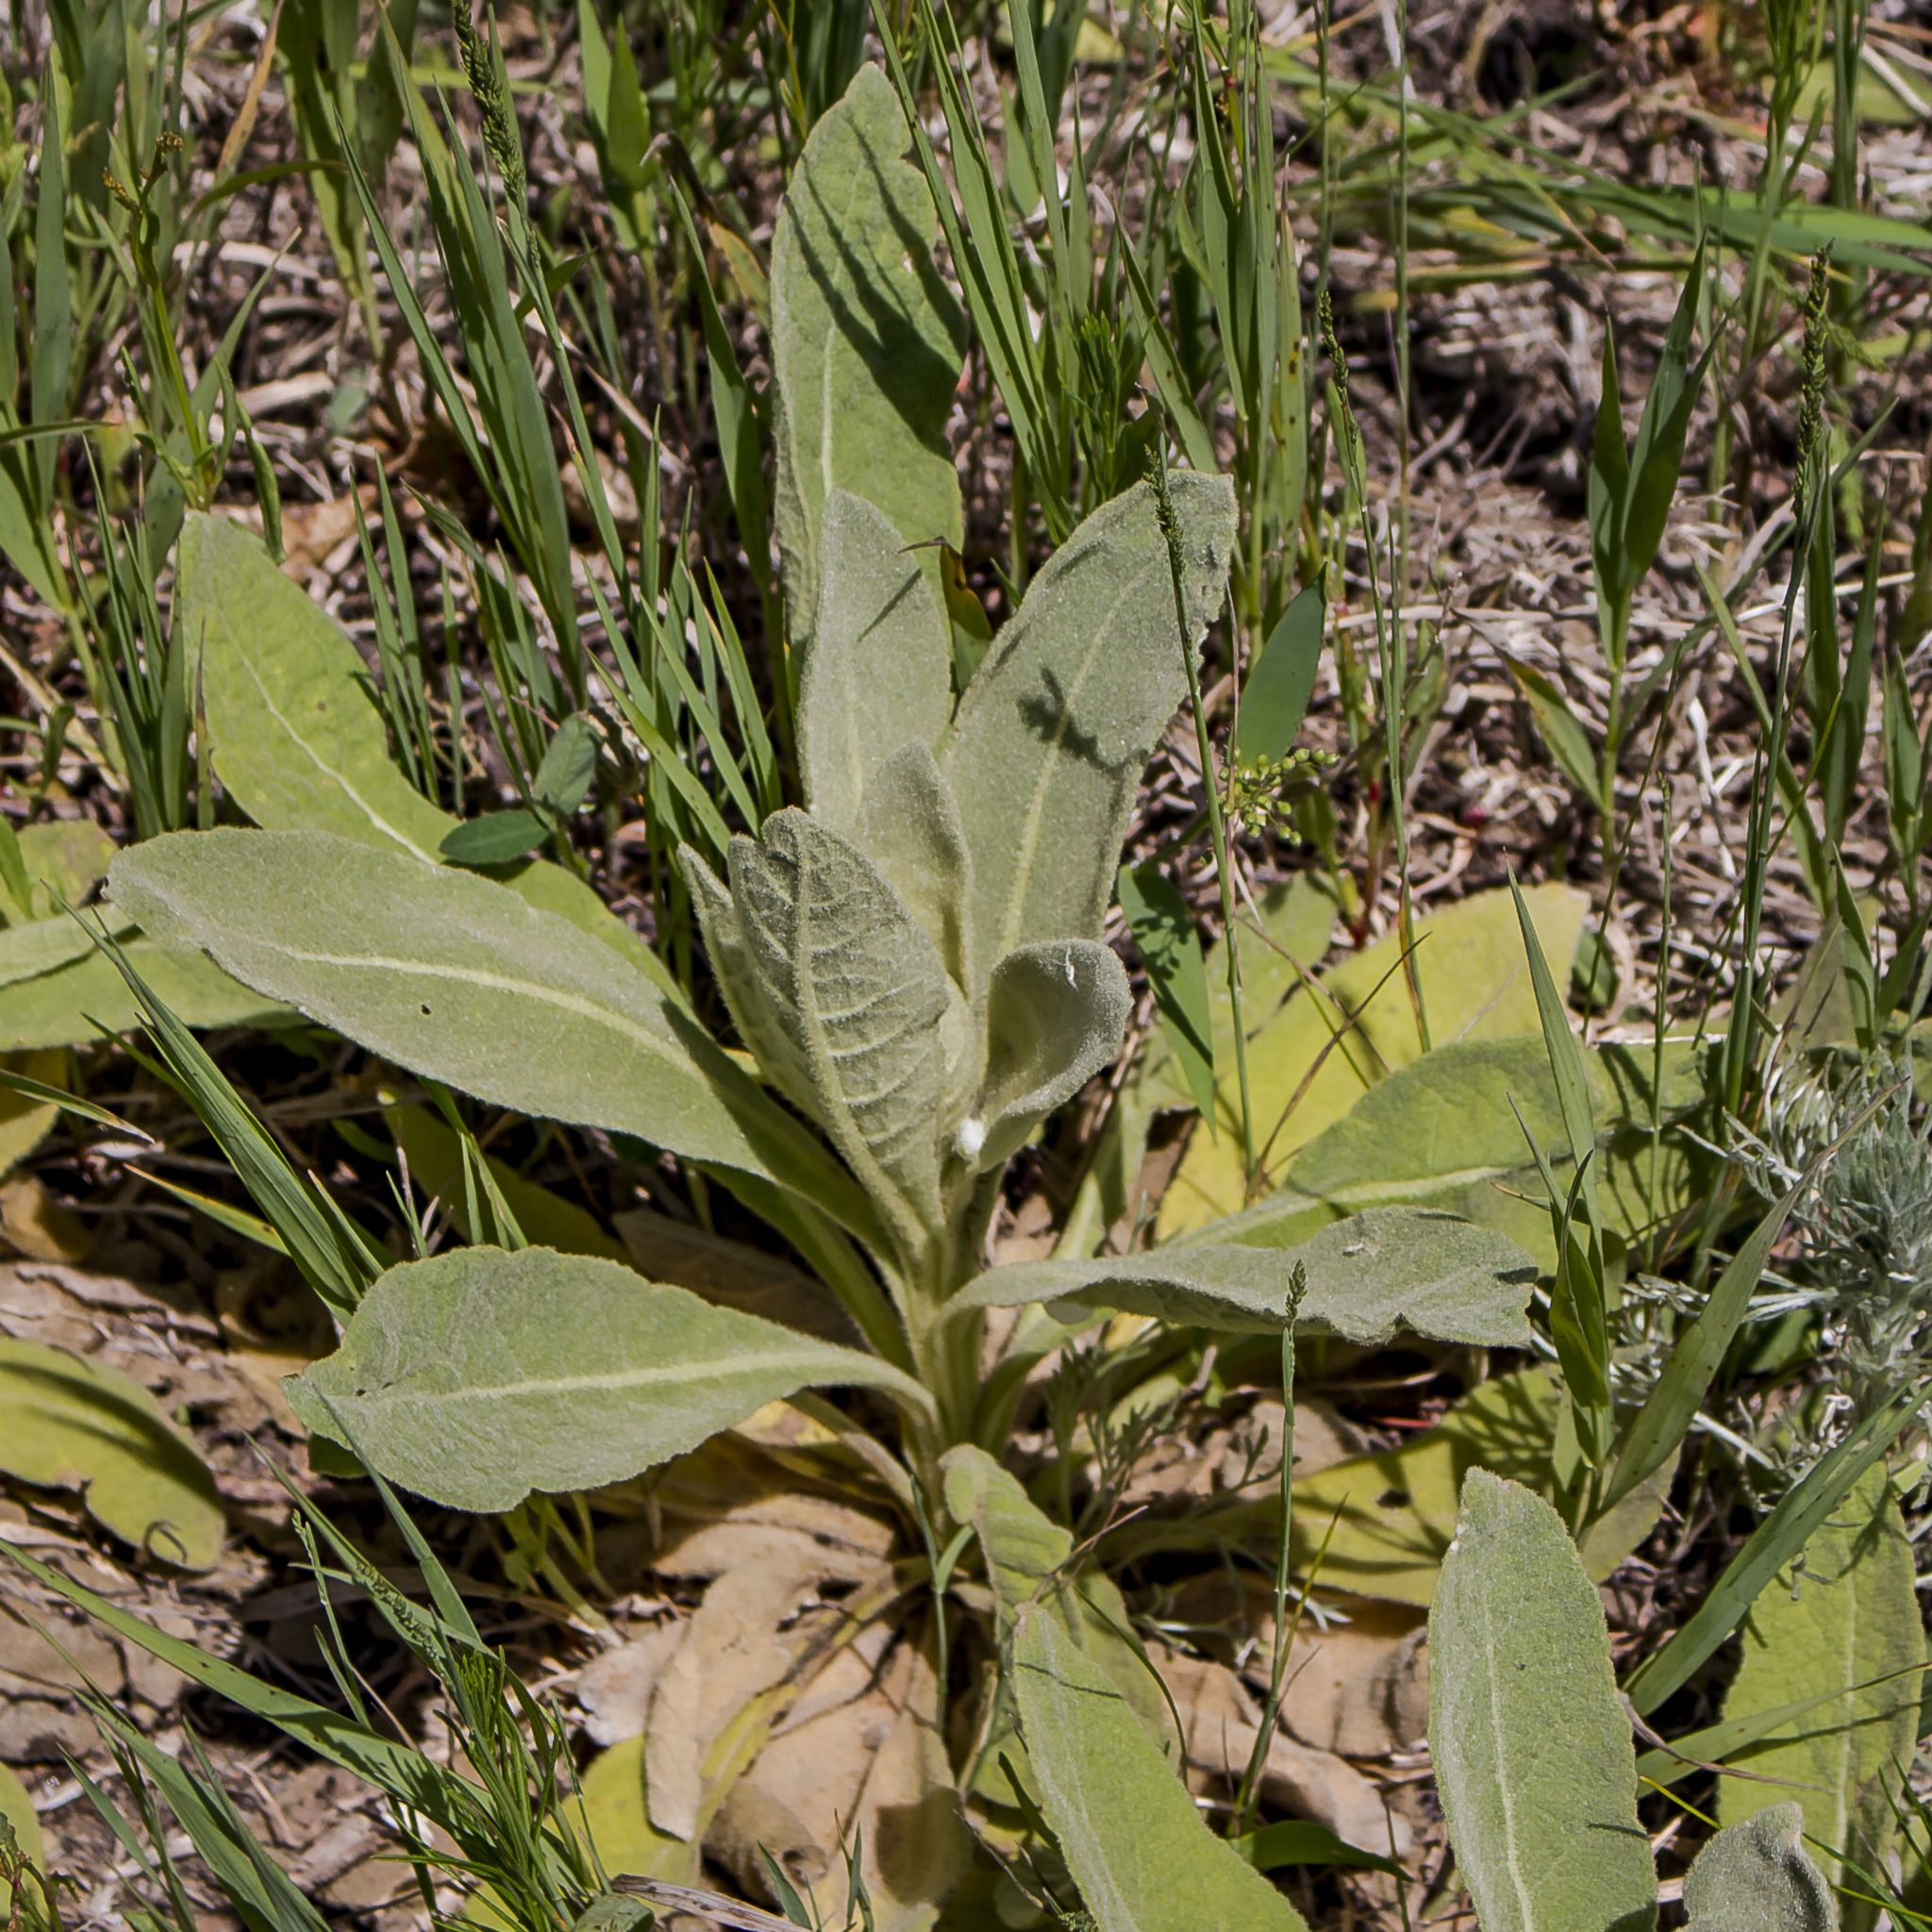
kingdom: Plantae
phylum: Tracheophyta
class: Magnoliopsida
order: Lamiales
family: Scrophulariaceae
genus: Verbascum
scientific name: Verbascum thapsus
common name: Common mullein
